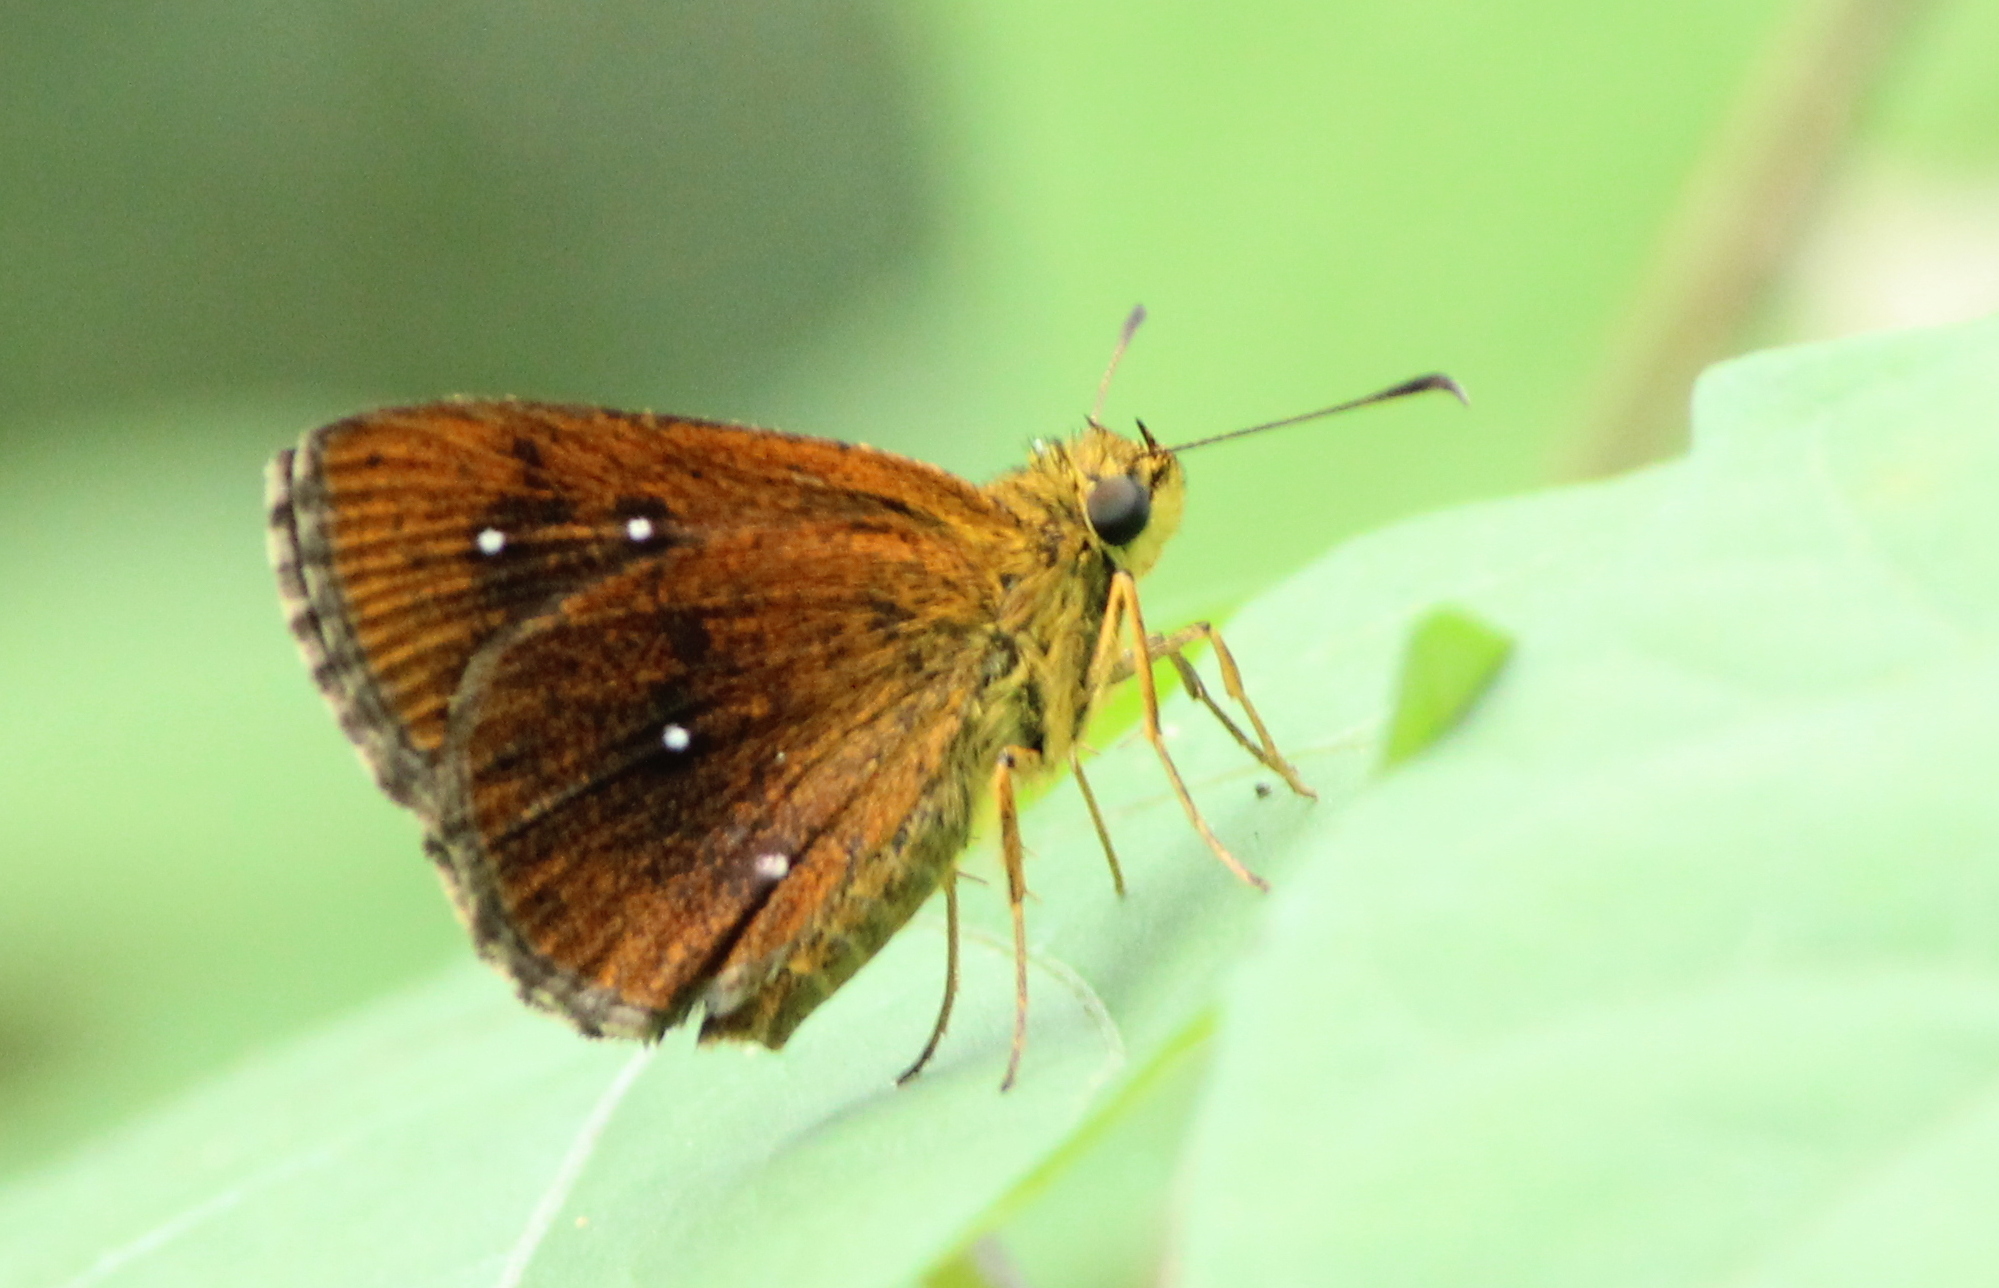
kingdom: Animalia
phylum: Arthropoda
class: Insecta
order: Lepidoptera
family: Hesperiidae
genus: Iambrix
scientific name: Iambrix salsala
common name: Chestnut bob
